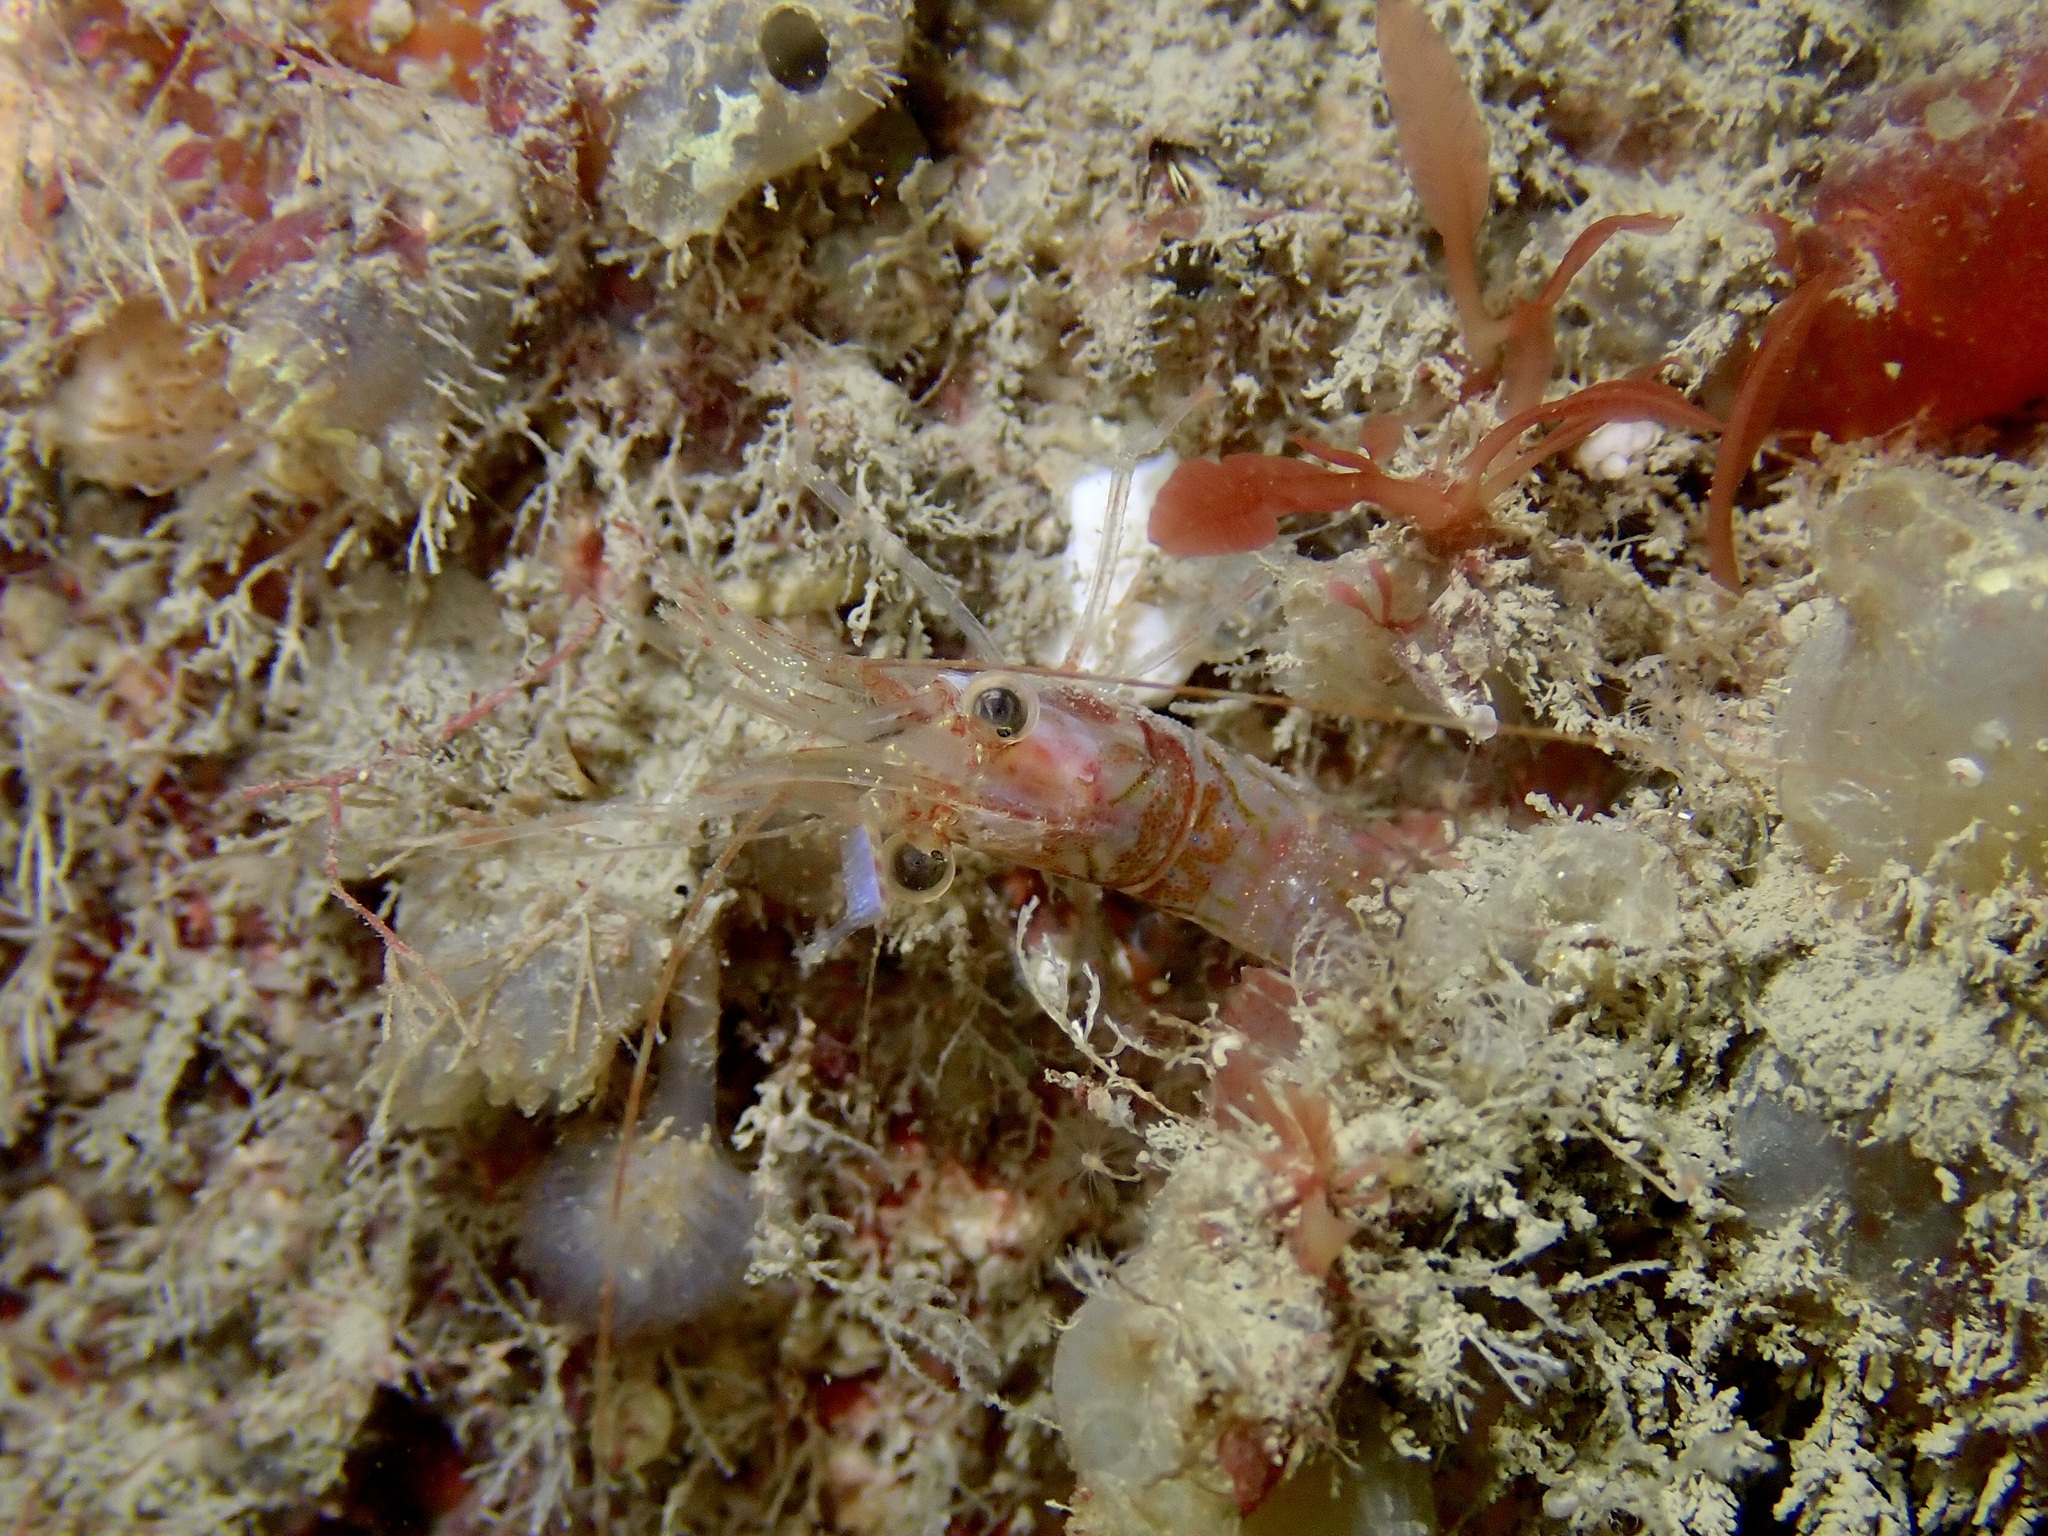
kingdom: Animalia
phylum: Arthropoda
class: Malacostraca
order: Decapoda
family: Pandalidae
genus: Pandalus
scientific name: Pandalus montagui
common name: Pink shrimp
